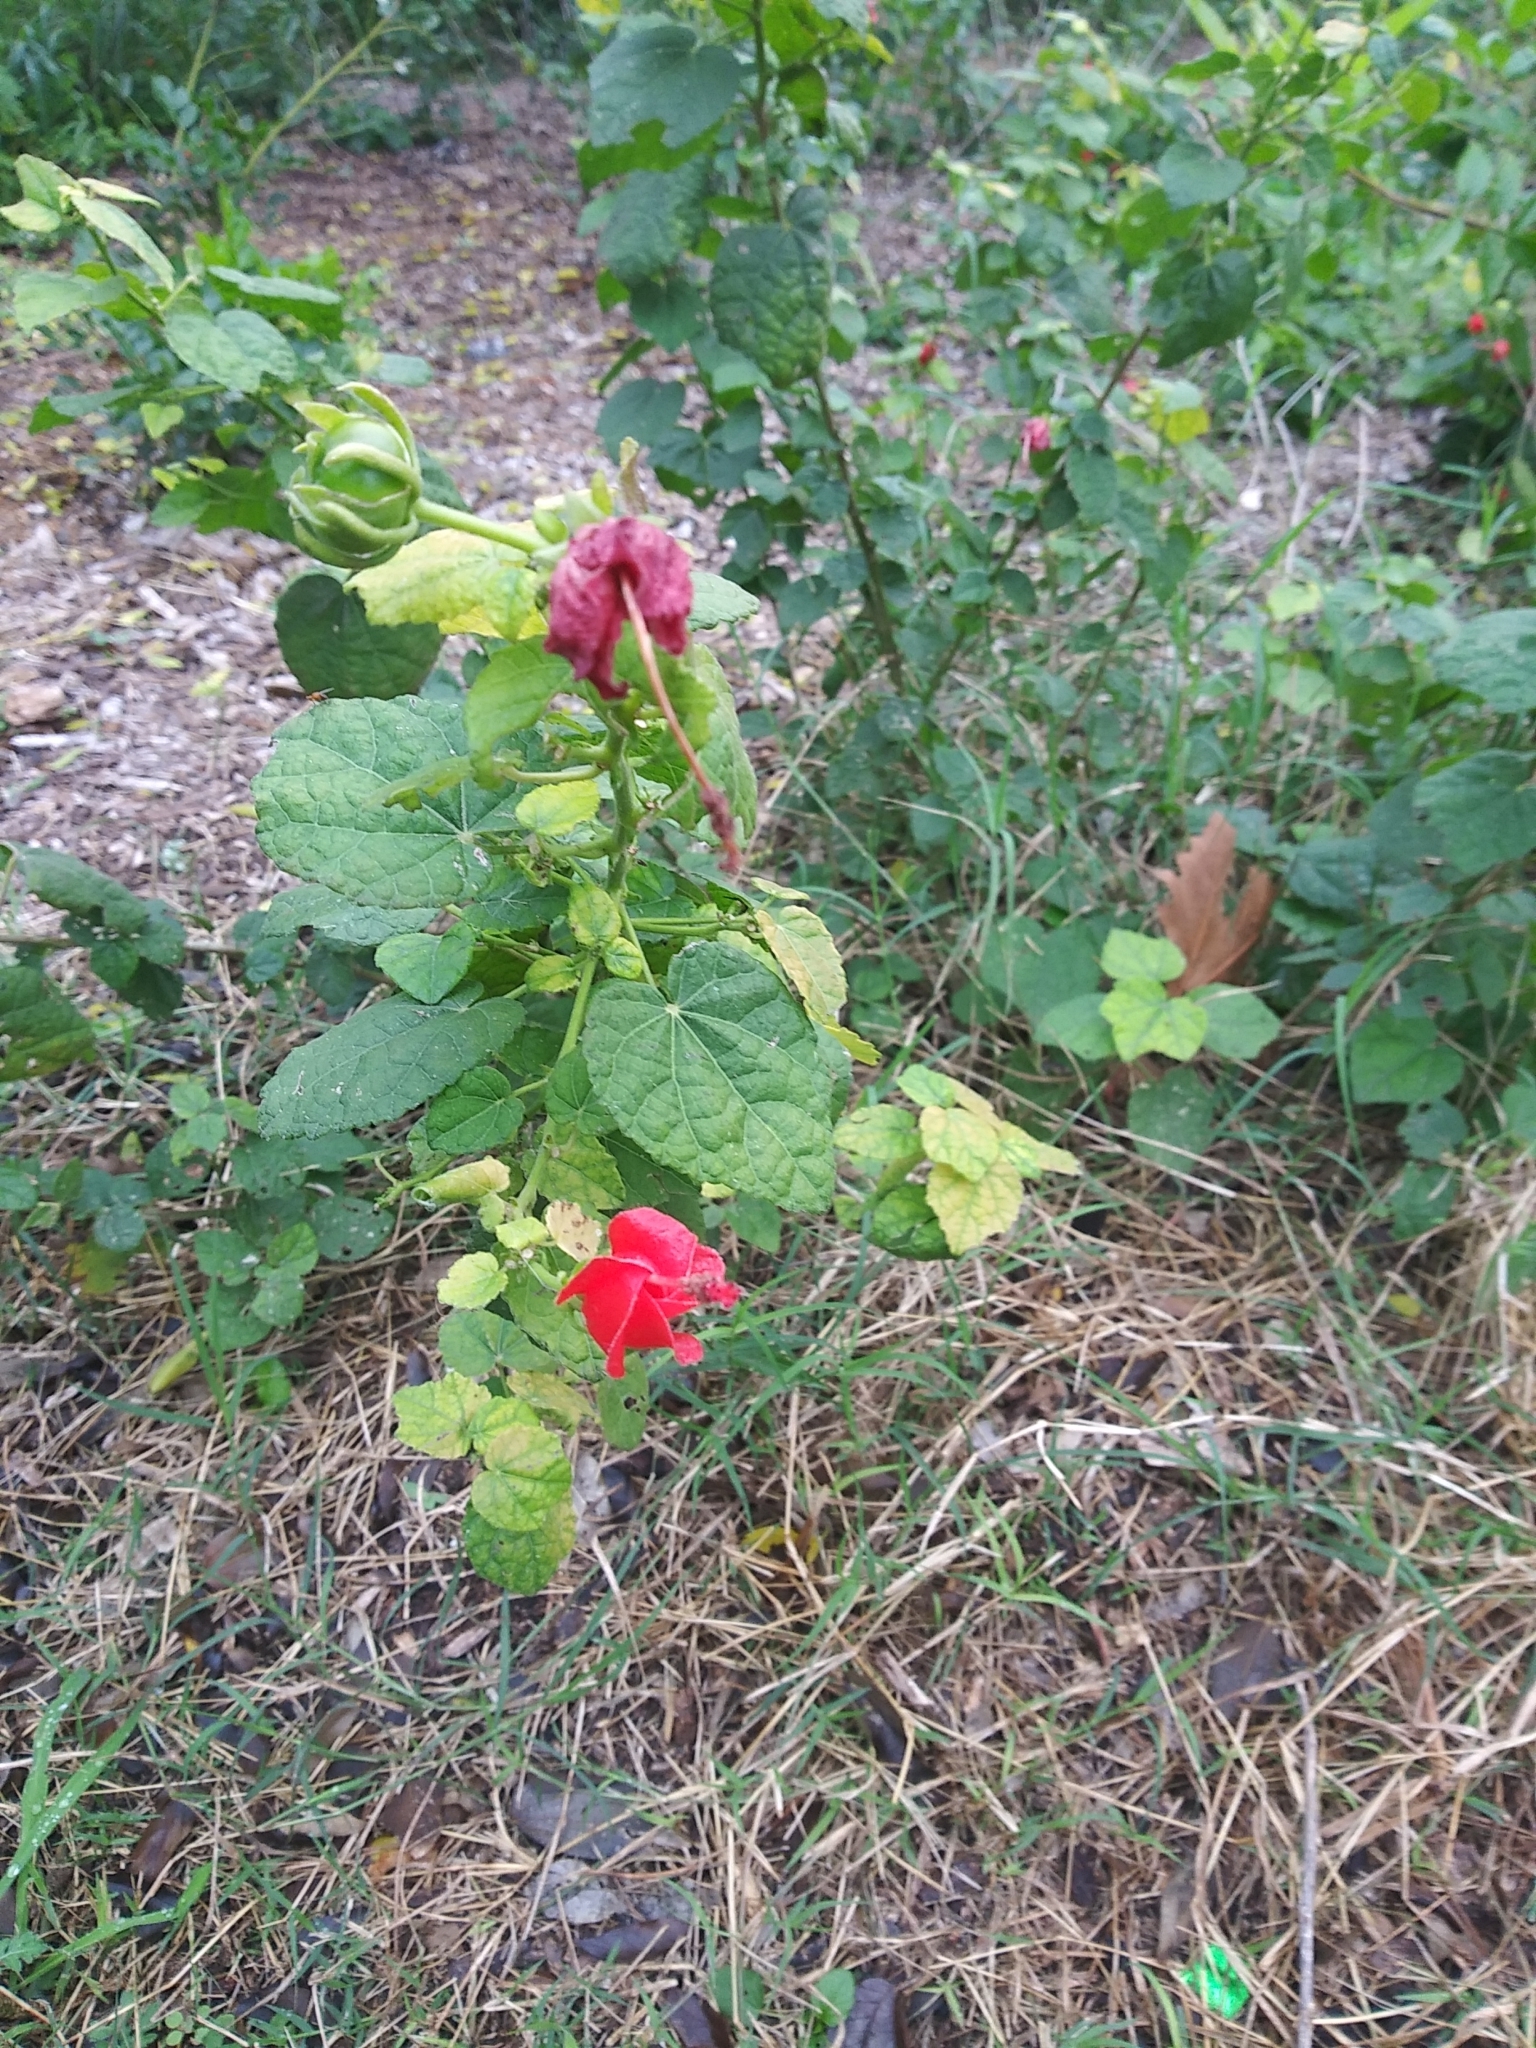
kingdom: Plantae
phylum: Tracheophyta
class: Magnoliopsida
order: Malvales
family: Malvaceae
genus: Malvaviscus
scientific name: Malvaviscus arboreus
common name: Wax mallow
